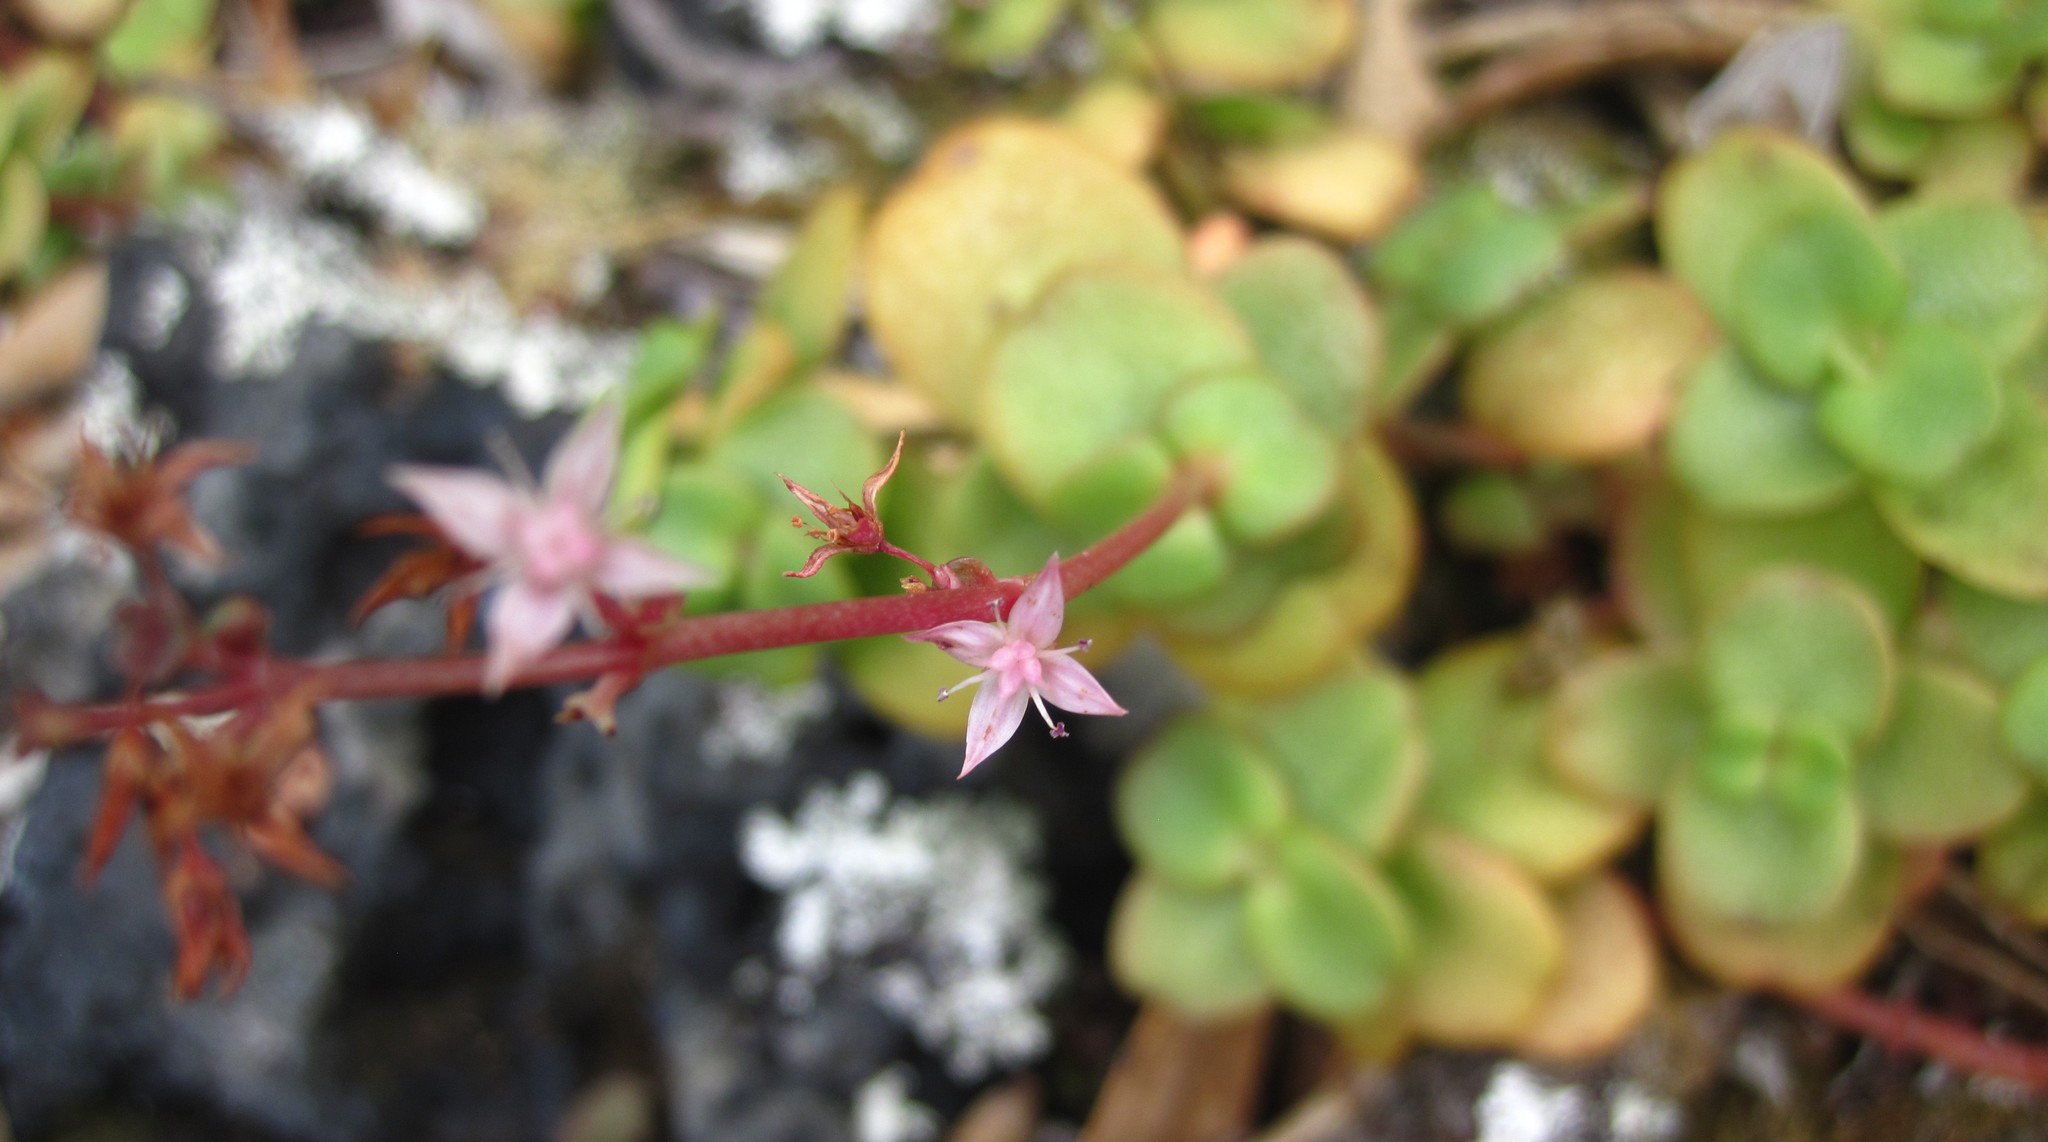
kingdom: Plantae
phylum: Tracheophyta
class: Magnoliopsida
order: Saxifragales
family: Crassulaceae
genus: Crassula
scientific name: Crassula multicava
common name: Cape province pygmyweed
